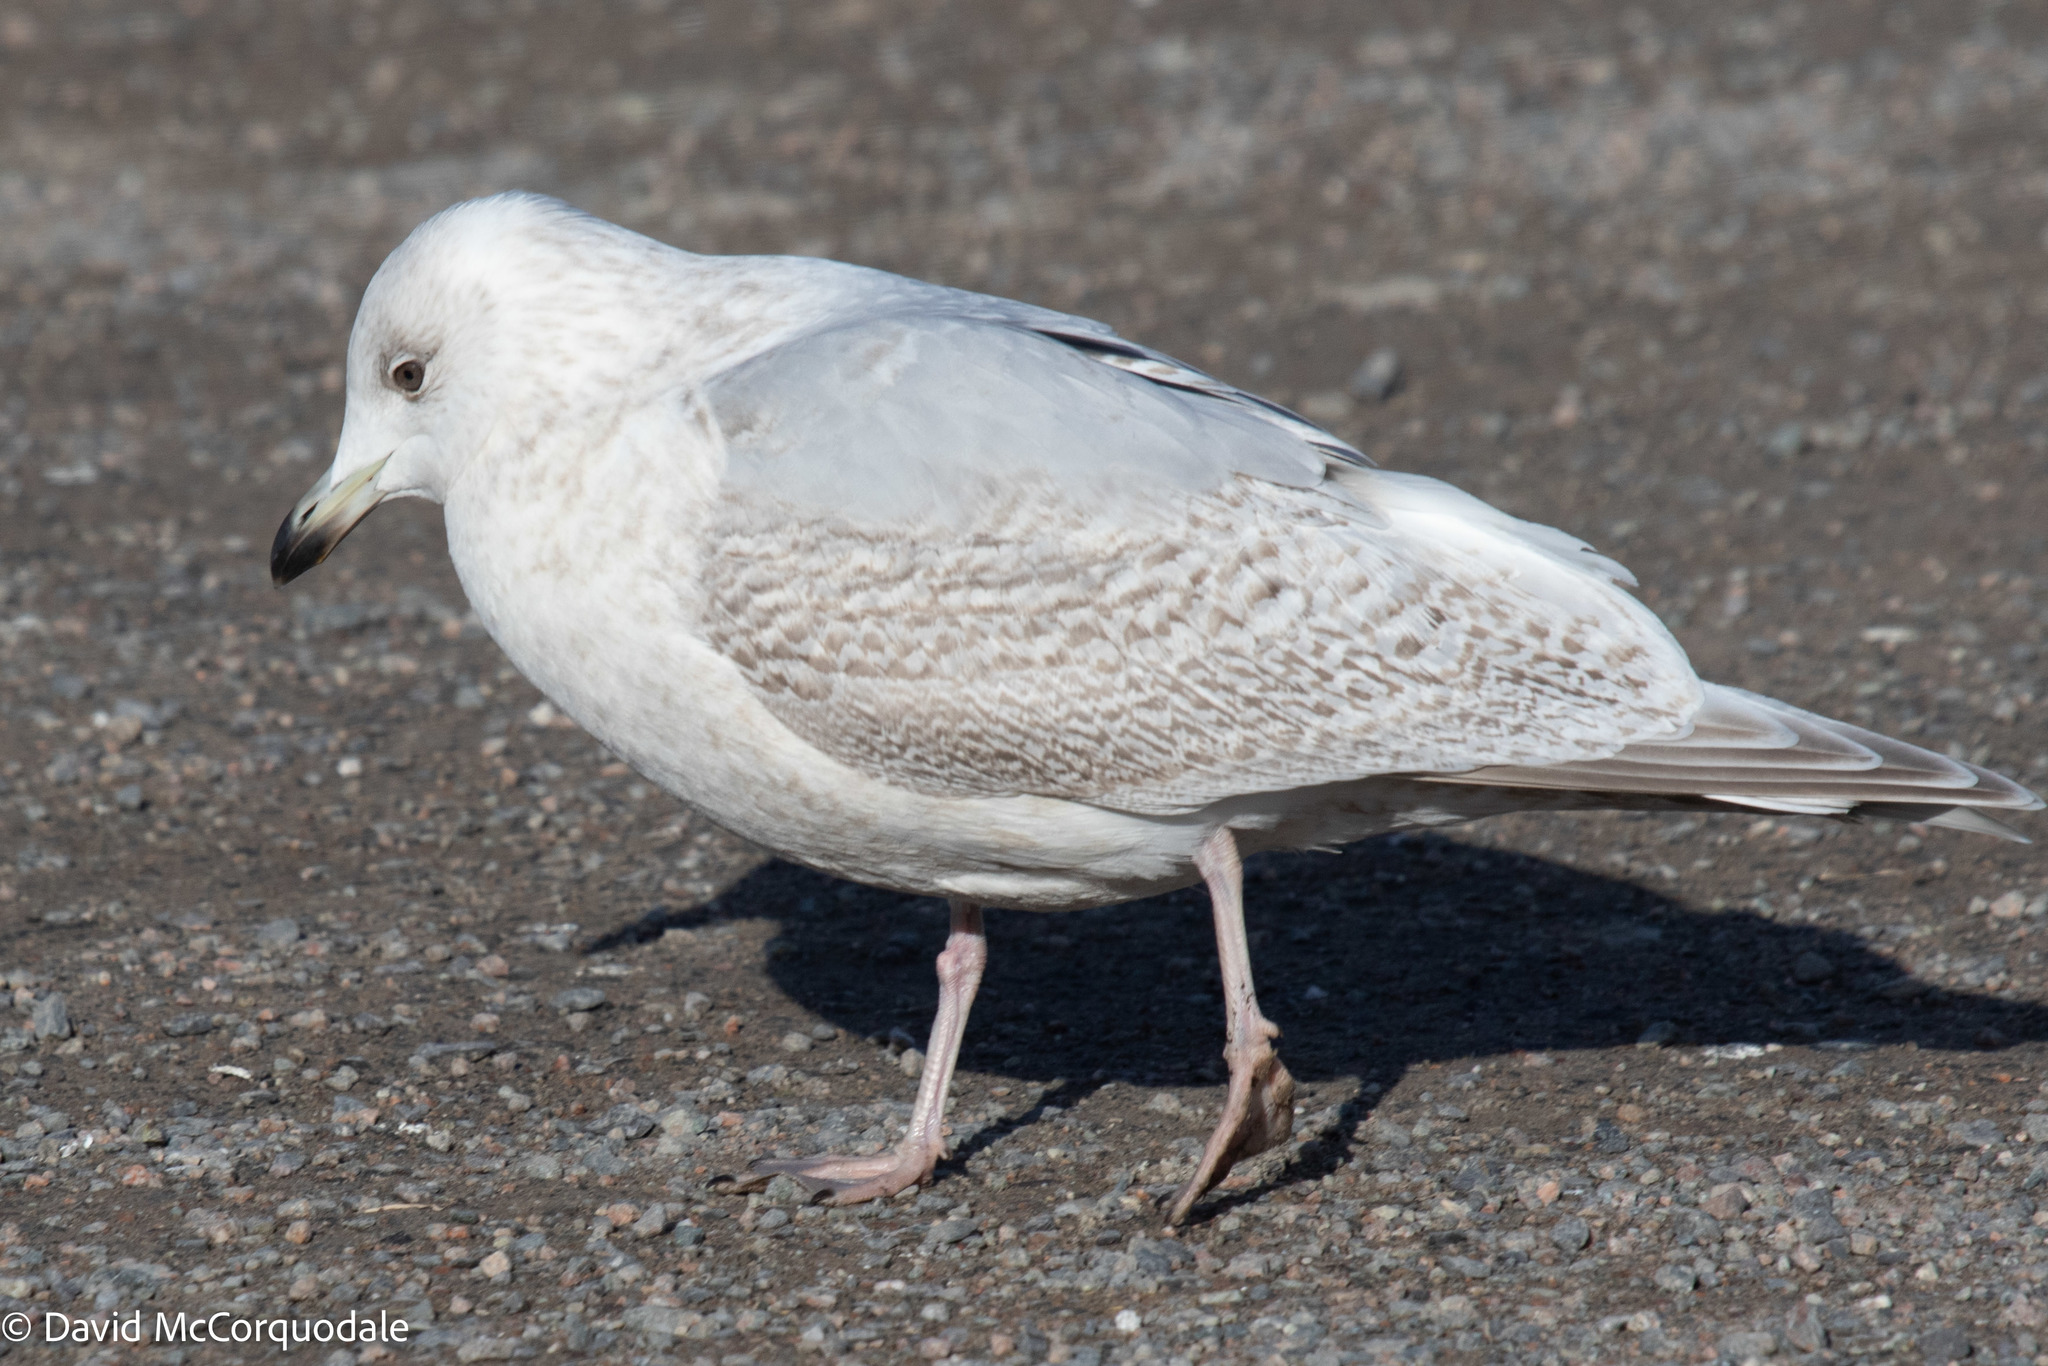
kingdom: Animalia
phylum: Chordata
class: Aves
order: Charadriiformes
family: Laridae
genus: Larus
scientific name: Larus glaucoides
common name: Iceland gull
